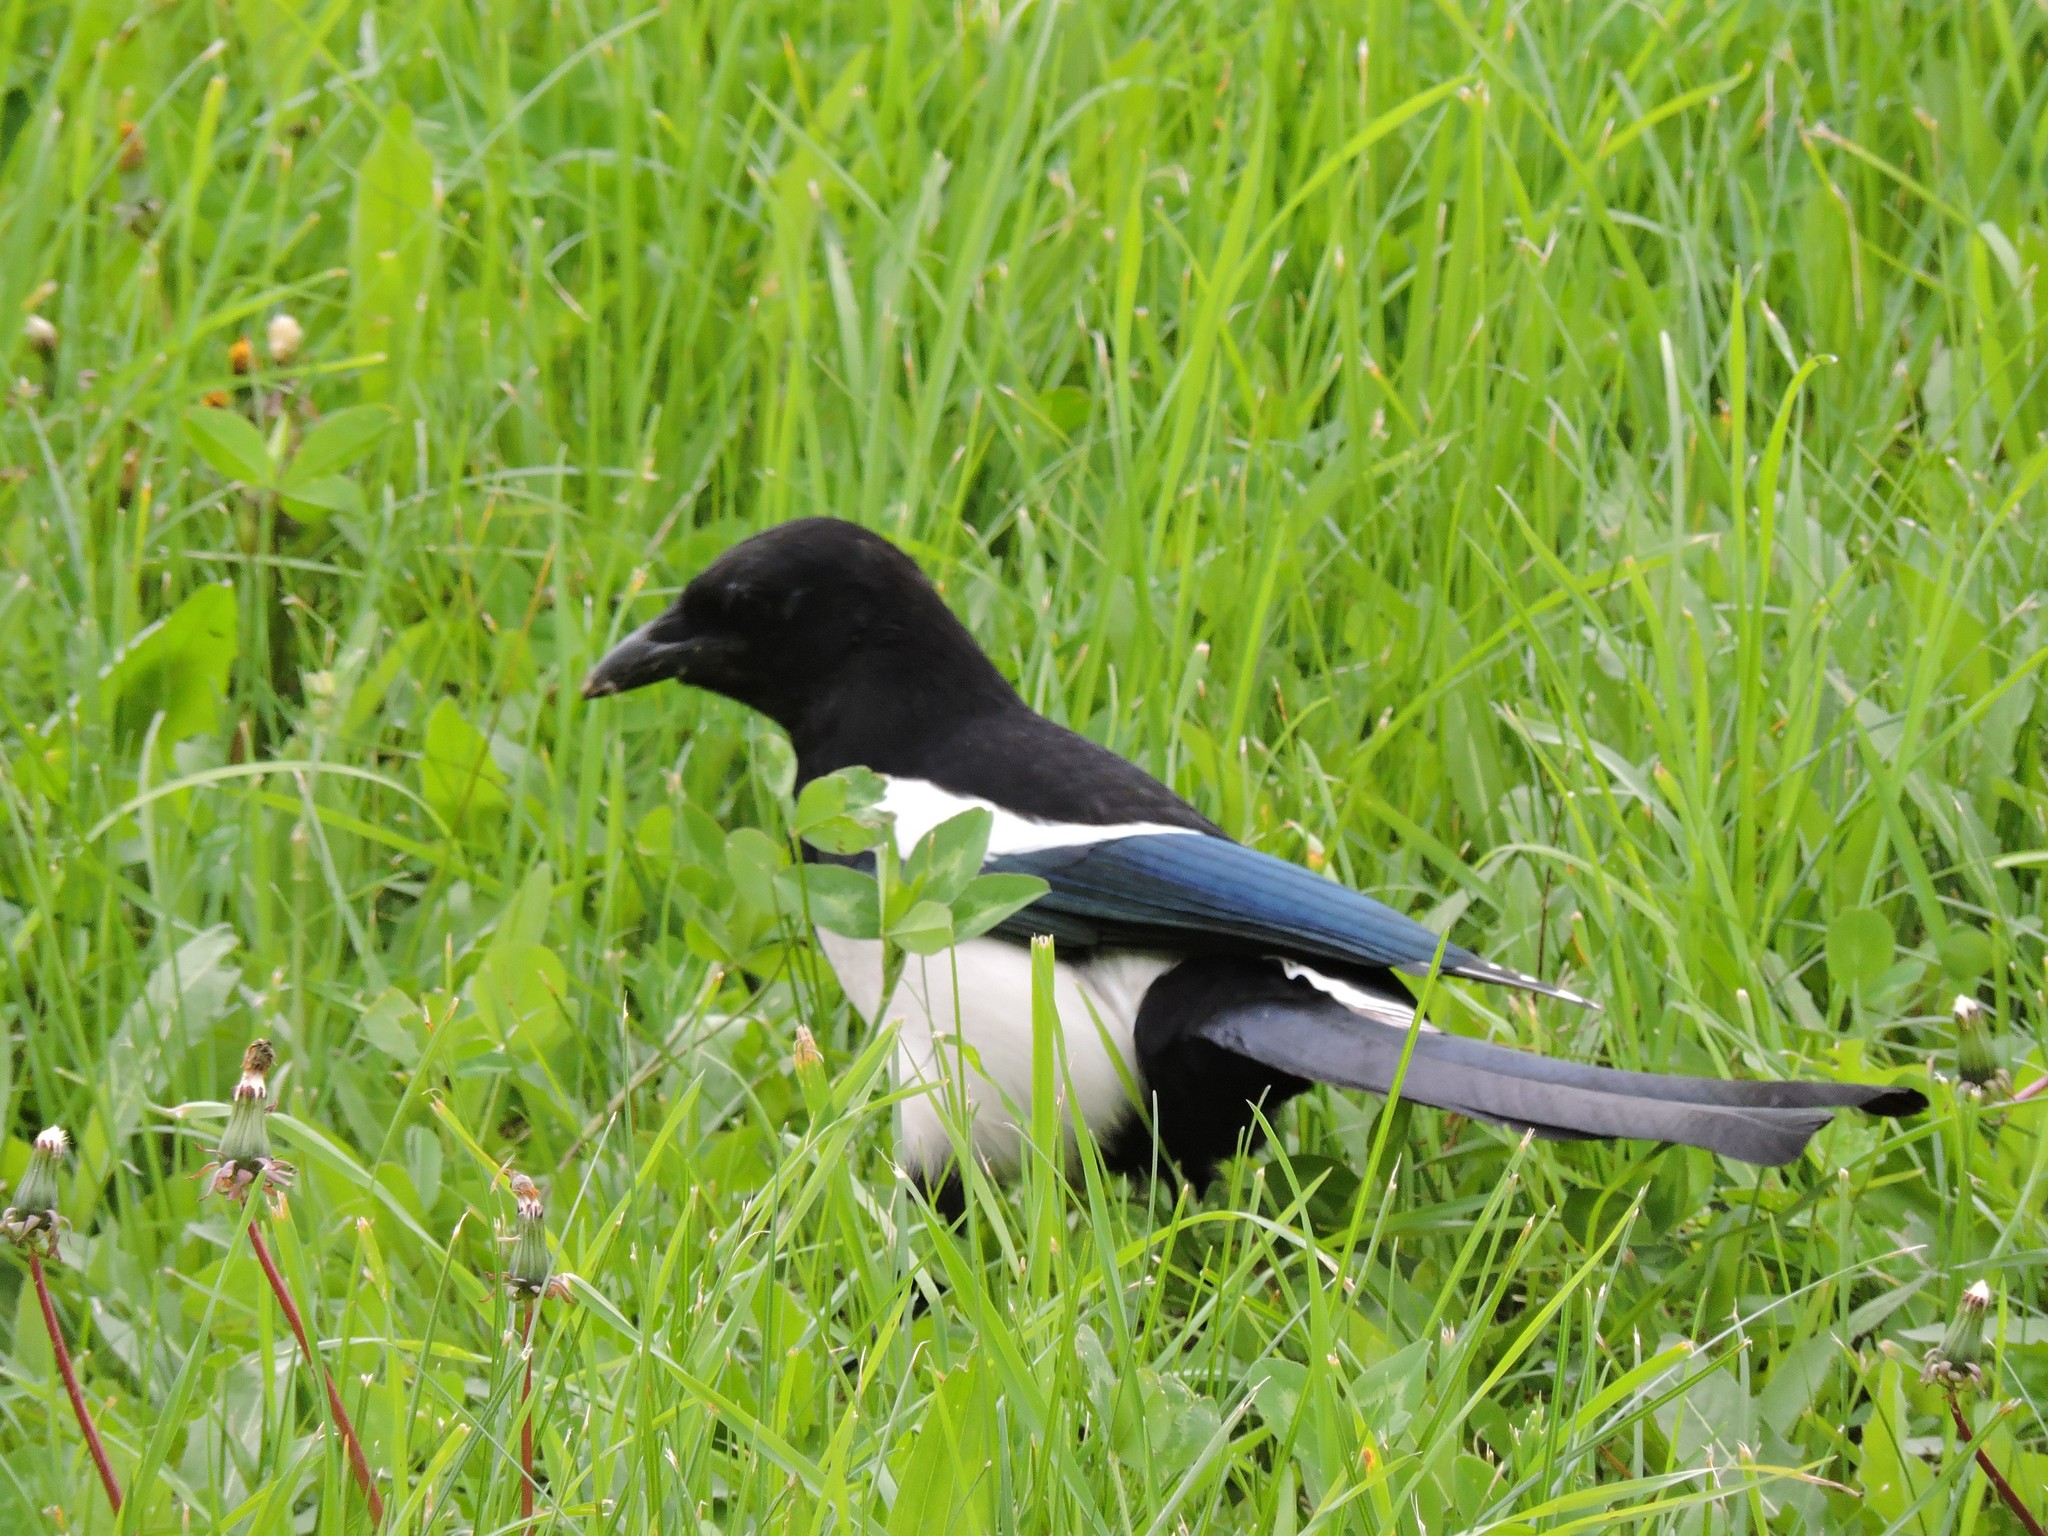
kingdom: Animalia
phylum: Chordata
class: Aves
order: Passeriformes
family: Corvidae
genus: Pica
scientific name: Pica pica
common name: Eurasian magpie
